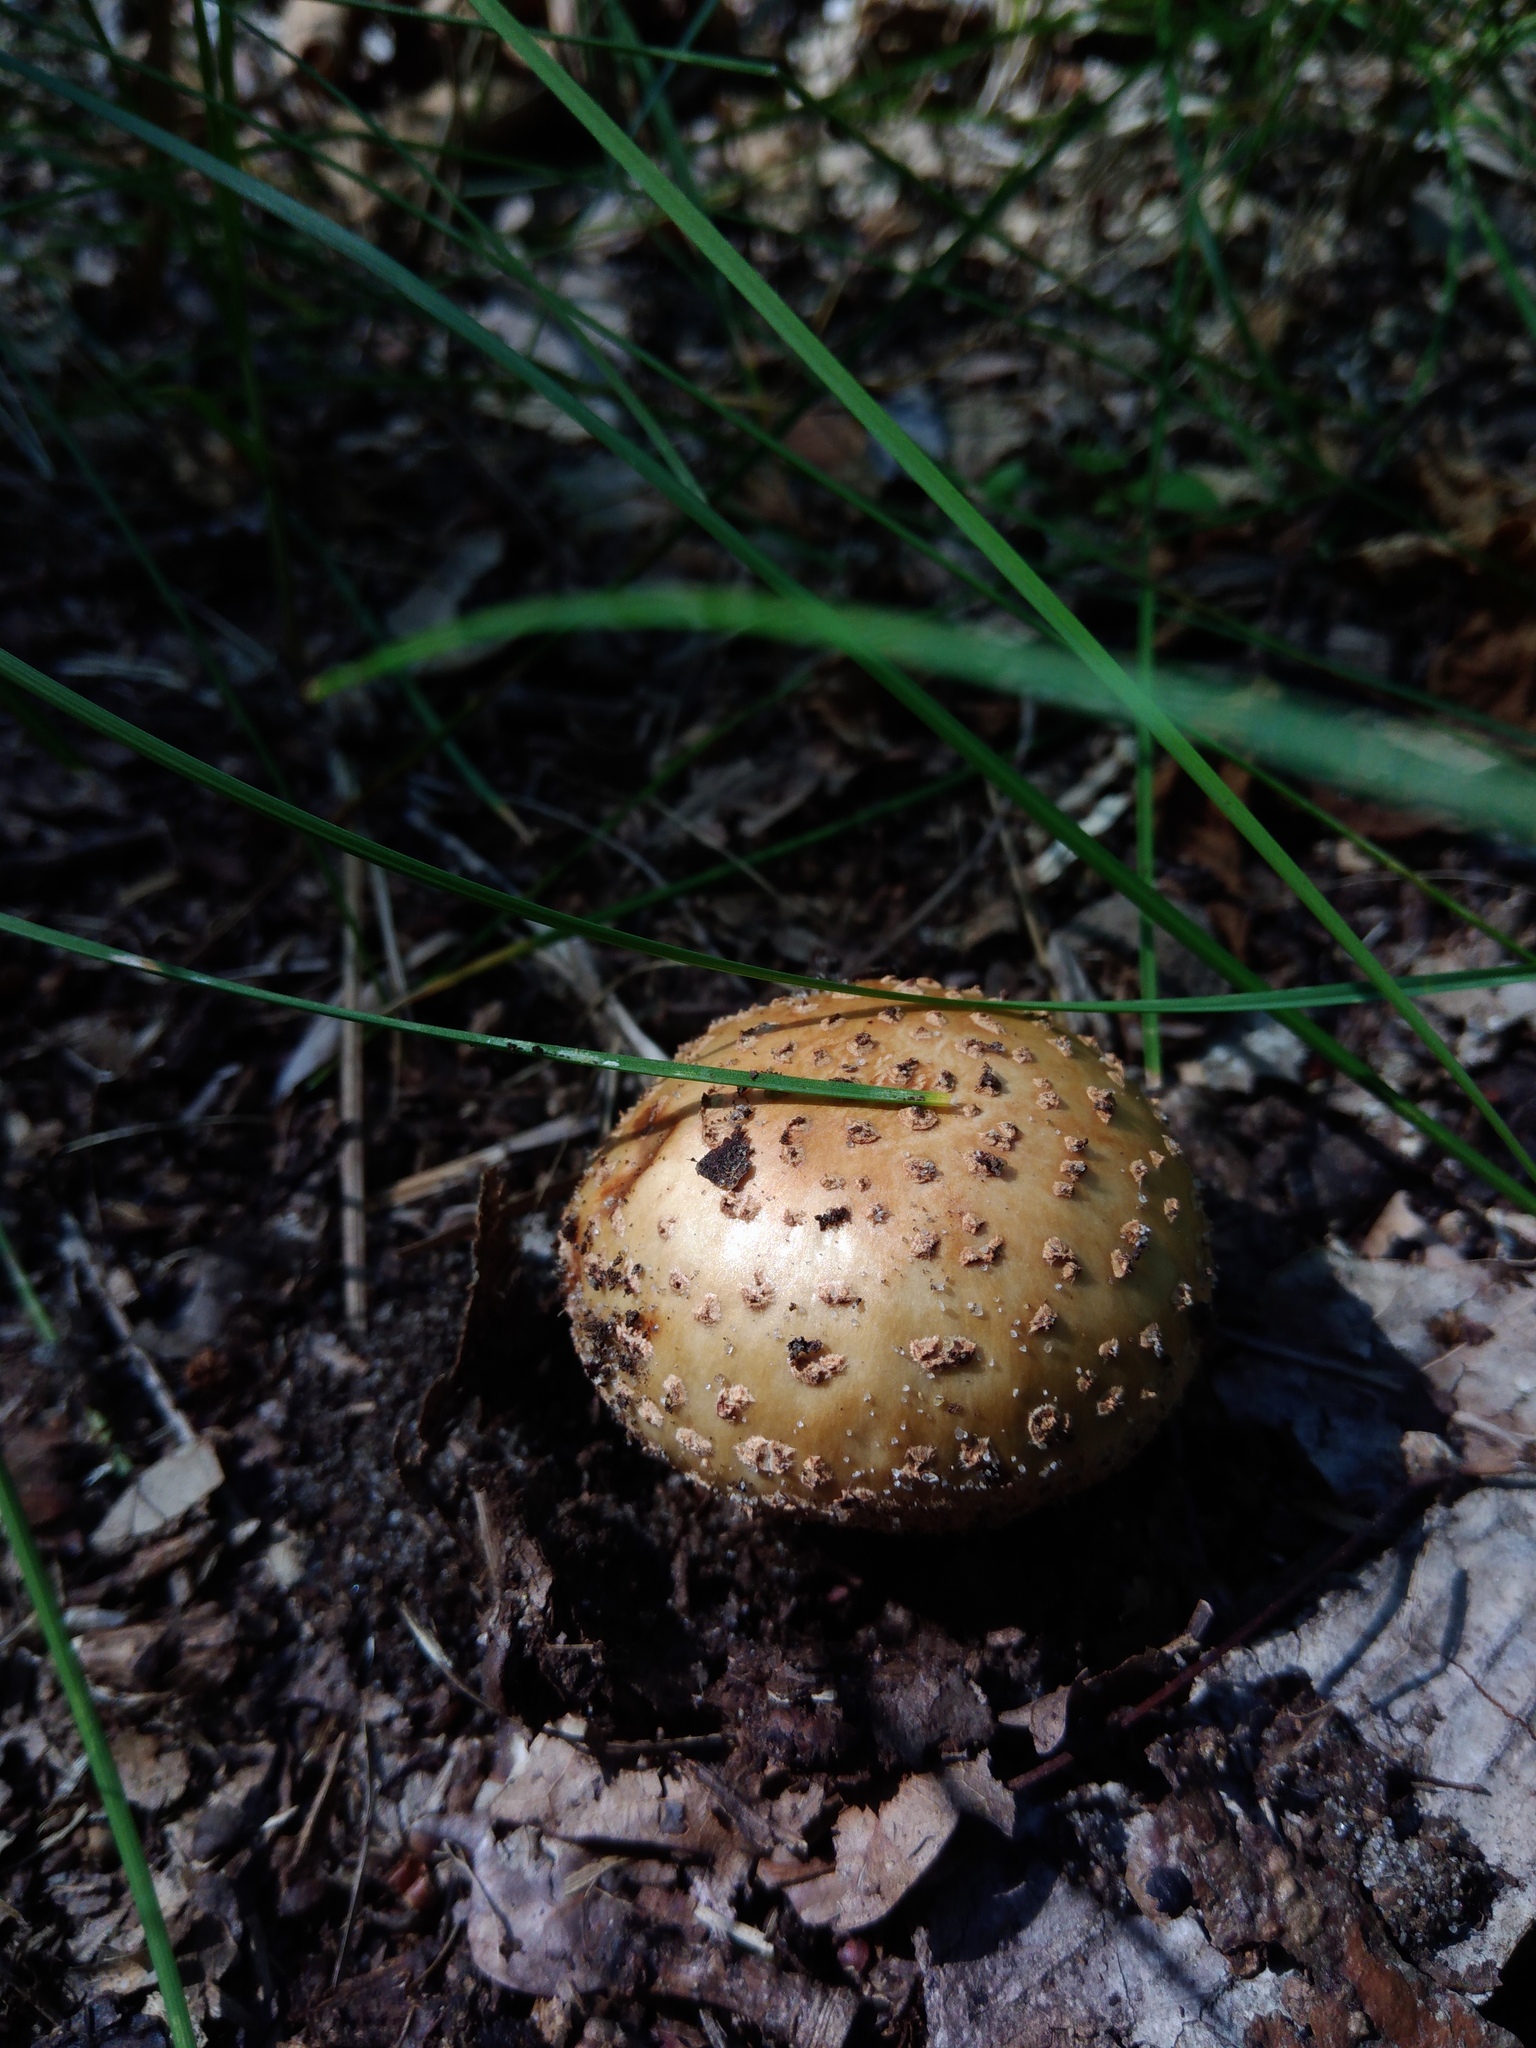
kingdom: Fungi
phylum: Basidiomycota
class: Agaricomycetes
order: Agaricales
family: Amanitaceae
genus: Amanita
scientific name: Amanita rubescens
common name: Blusher
